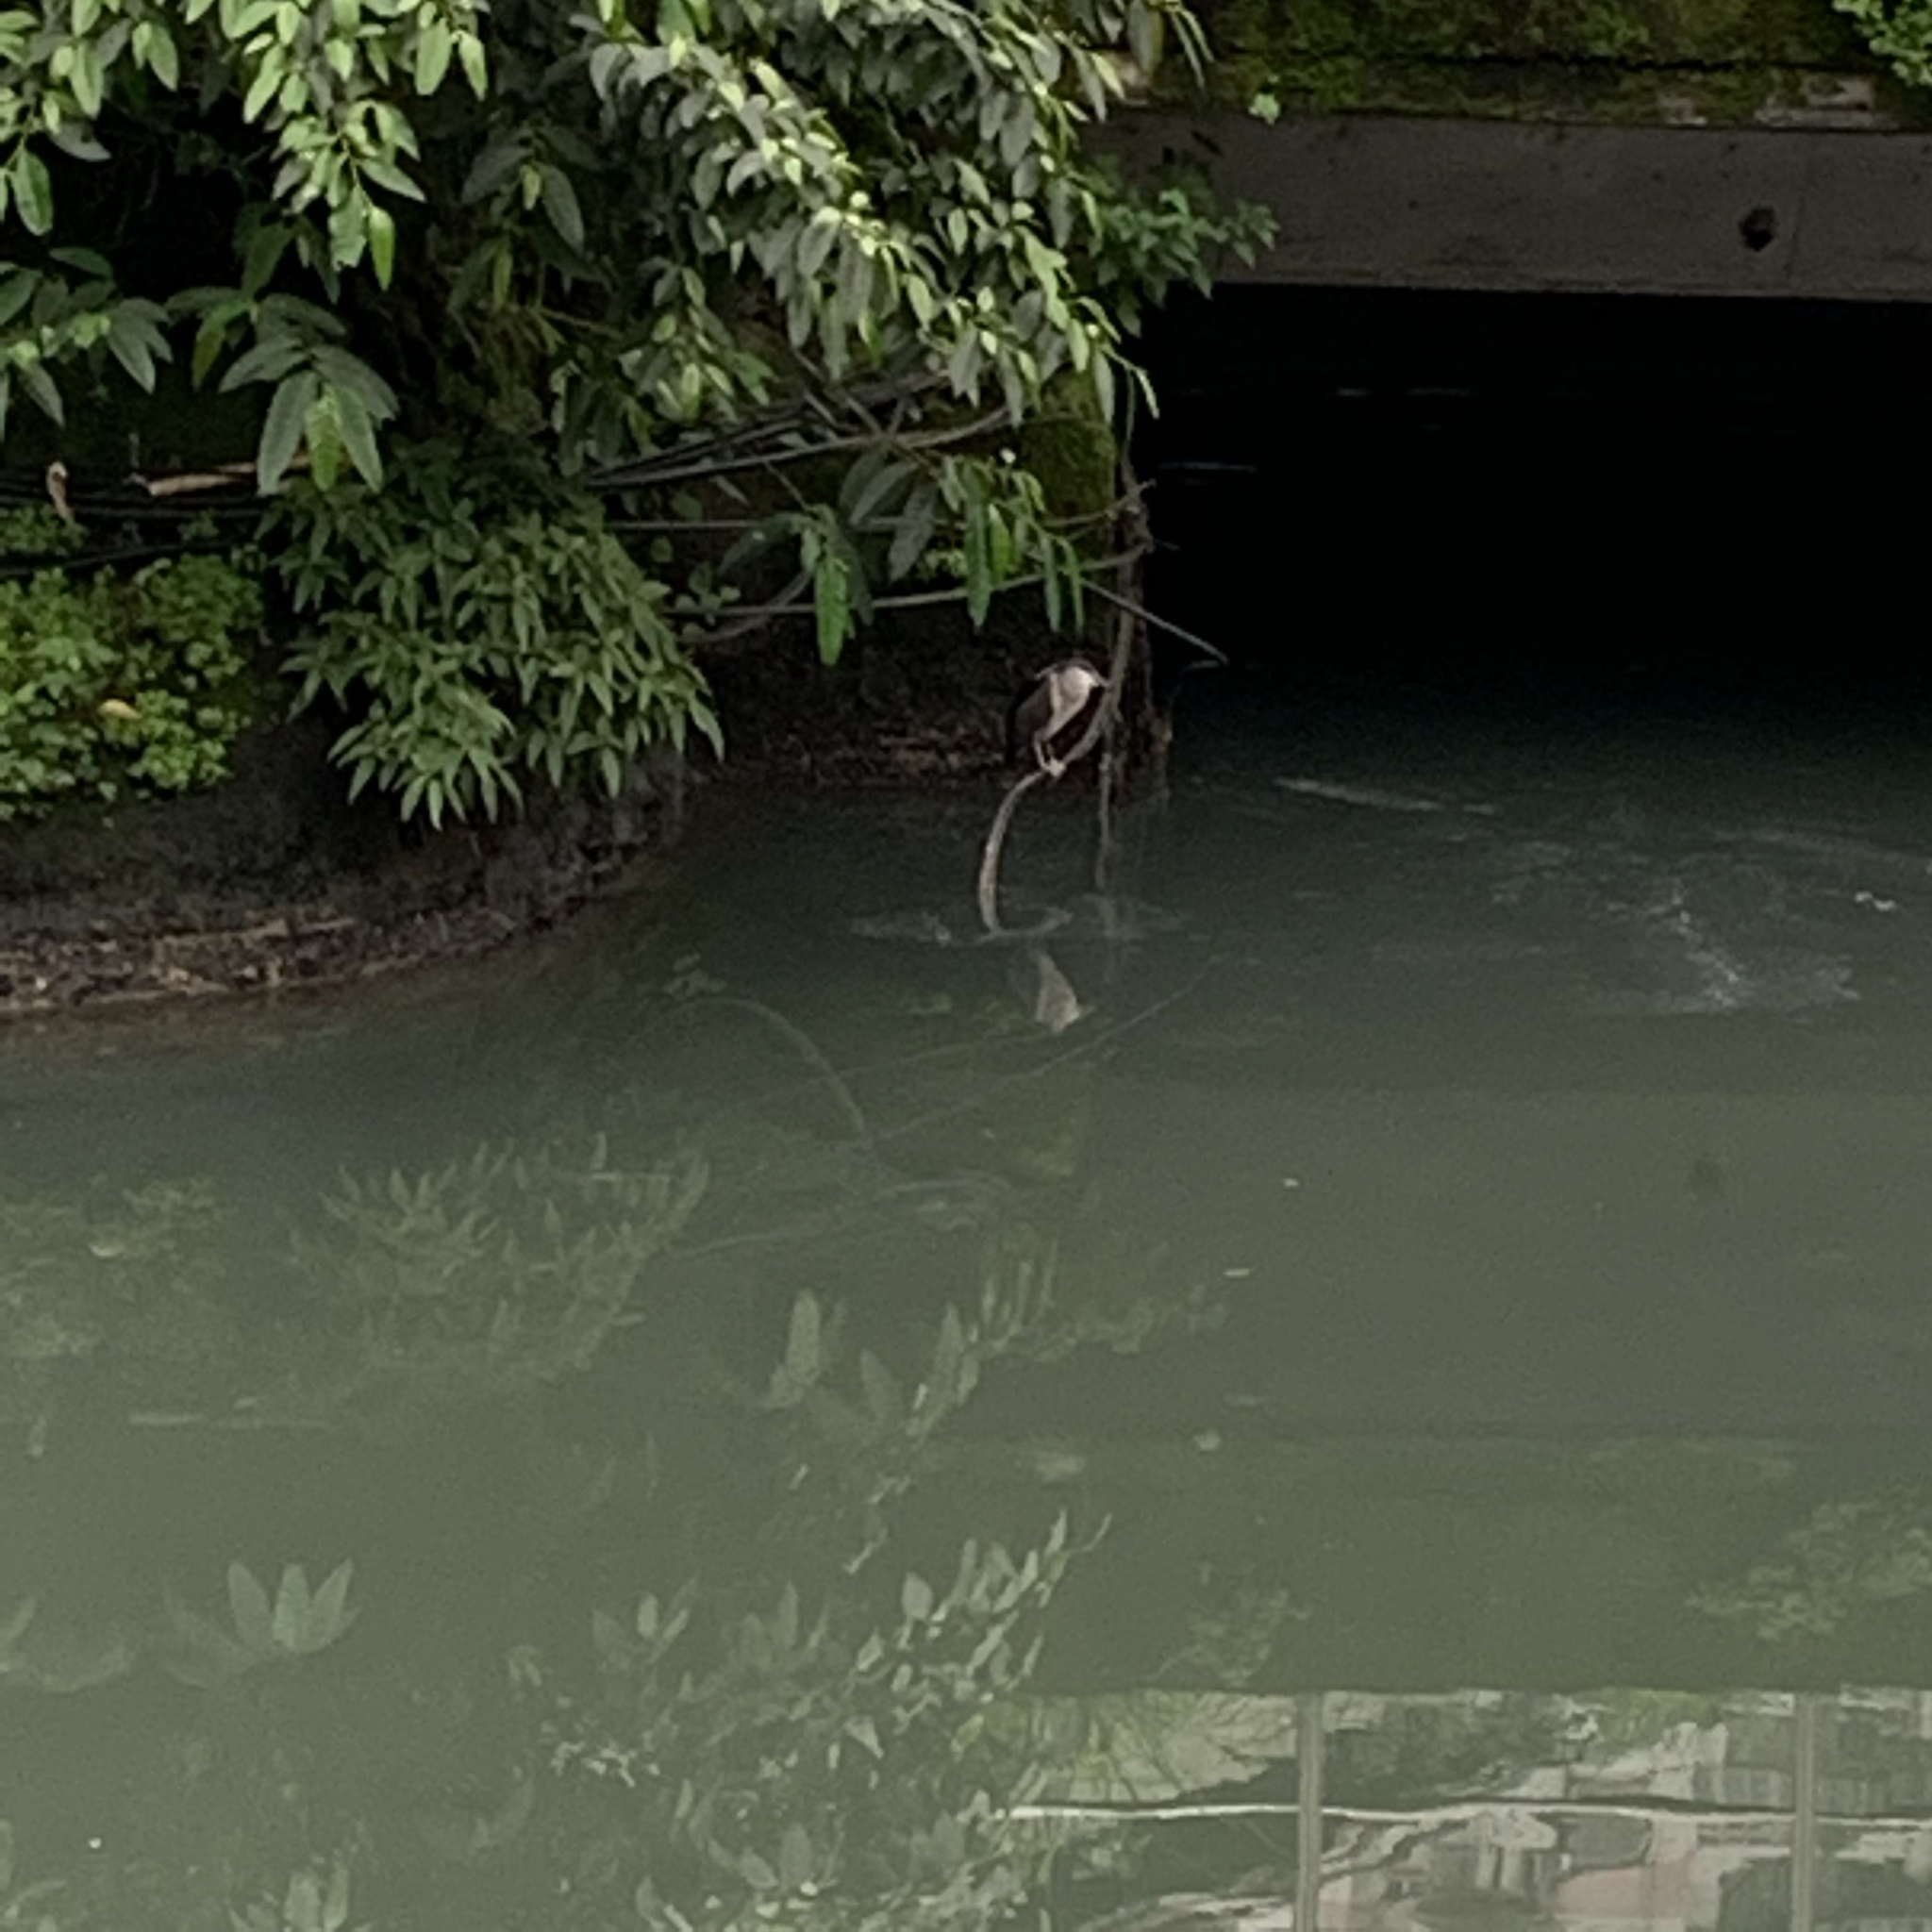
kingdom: Animalia
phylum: Chordata
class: Aves
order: Pelecaniformes
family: Ardeidae
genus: Nycticorax
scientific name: Nycticorax nycticorax
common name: Black-crowned night heron
